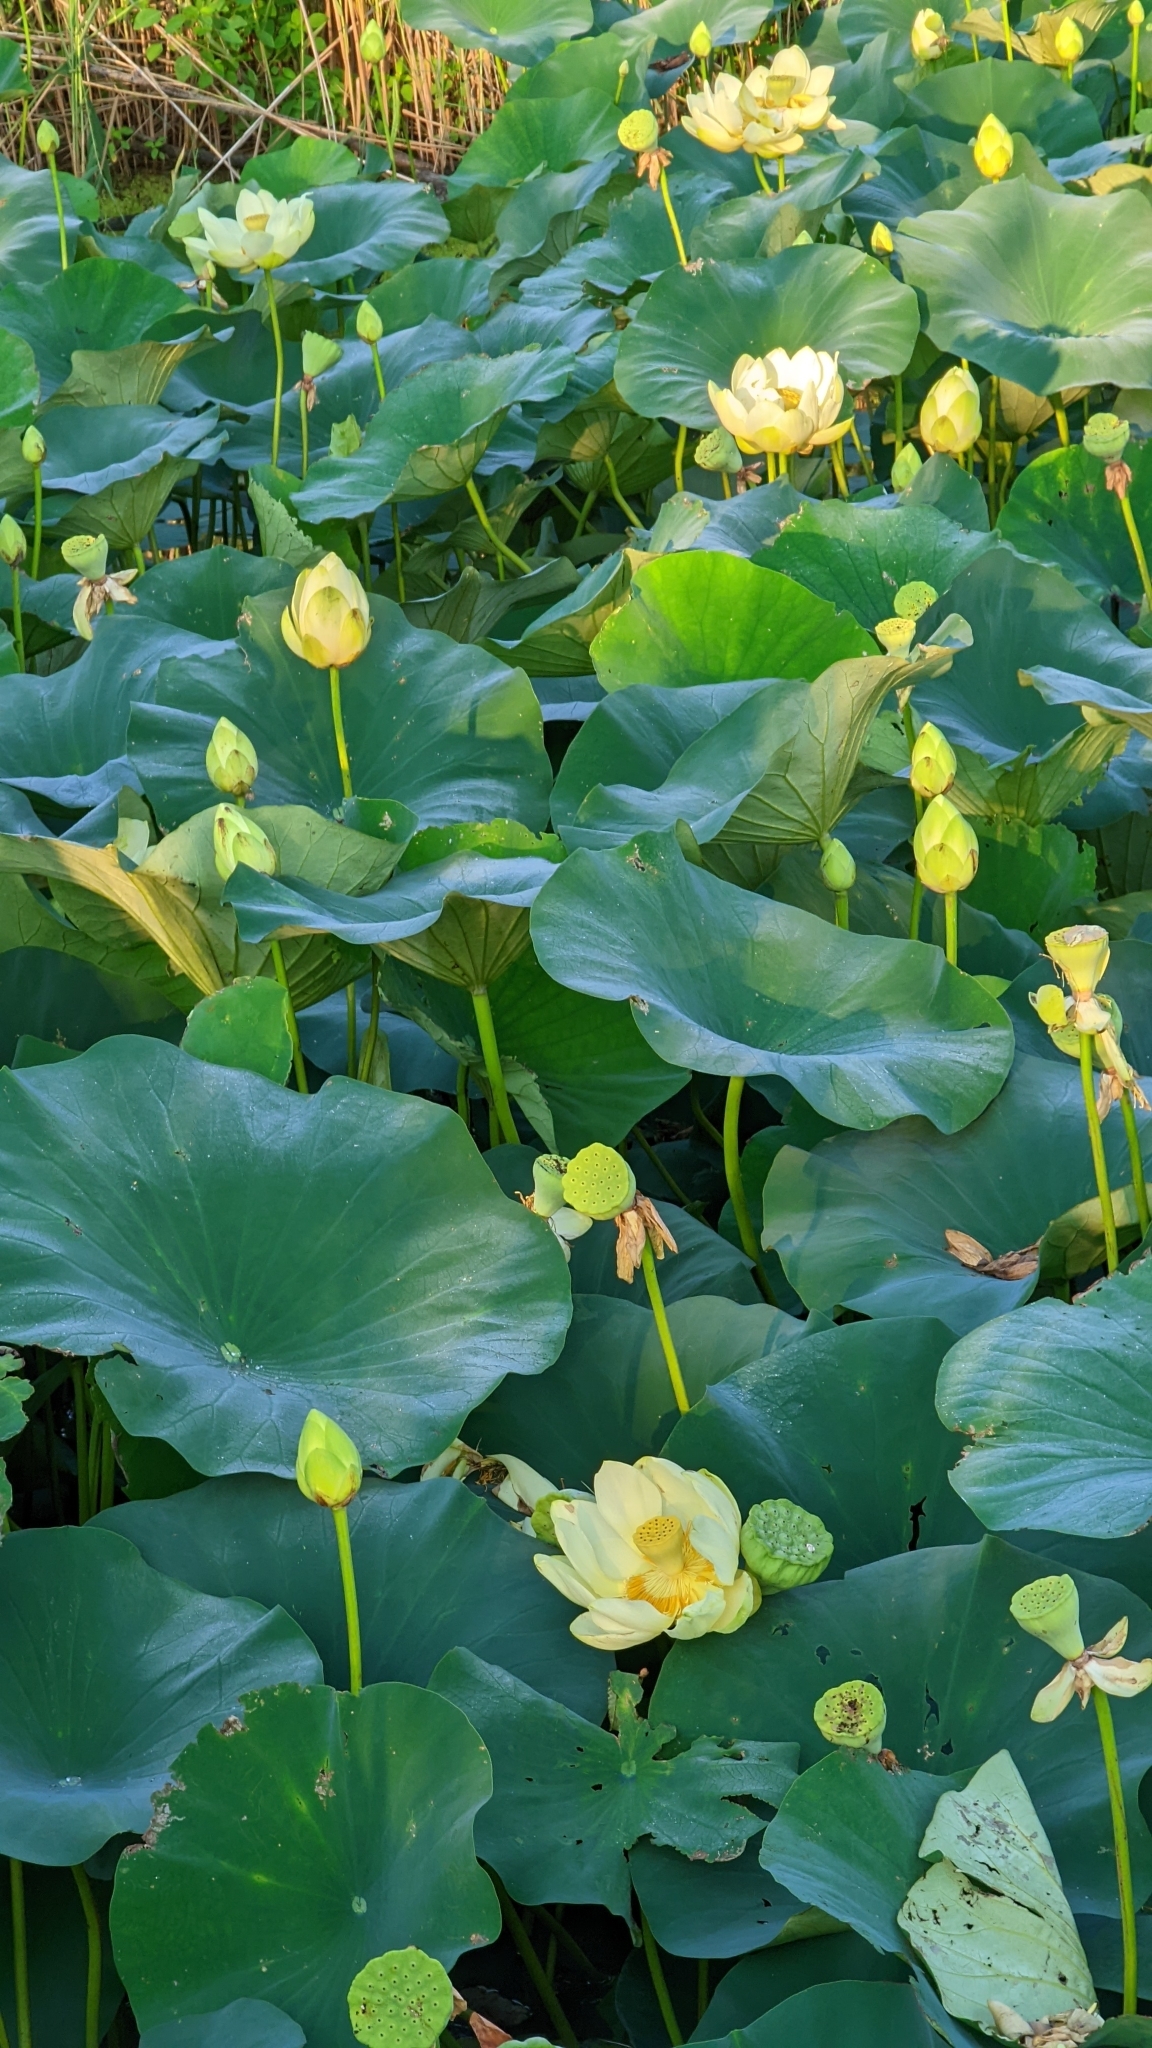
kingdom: Plantae
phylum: Tracheophyta
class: Magnoliopsida
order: Proteales
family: Nelumbonaceae
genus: Nelumbo
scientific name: Nelumbo lutea
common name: American lotus
